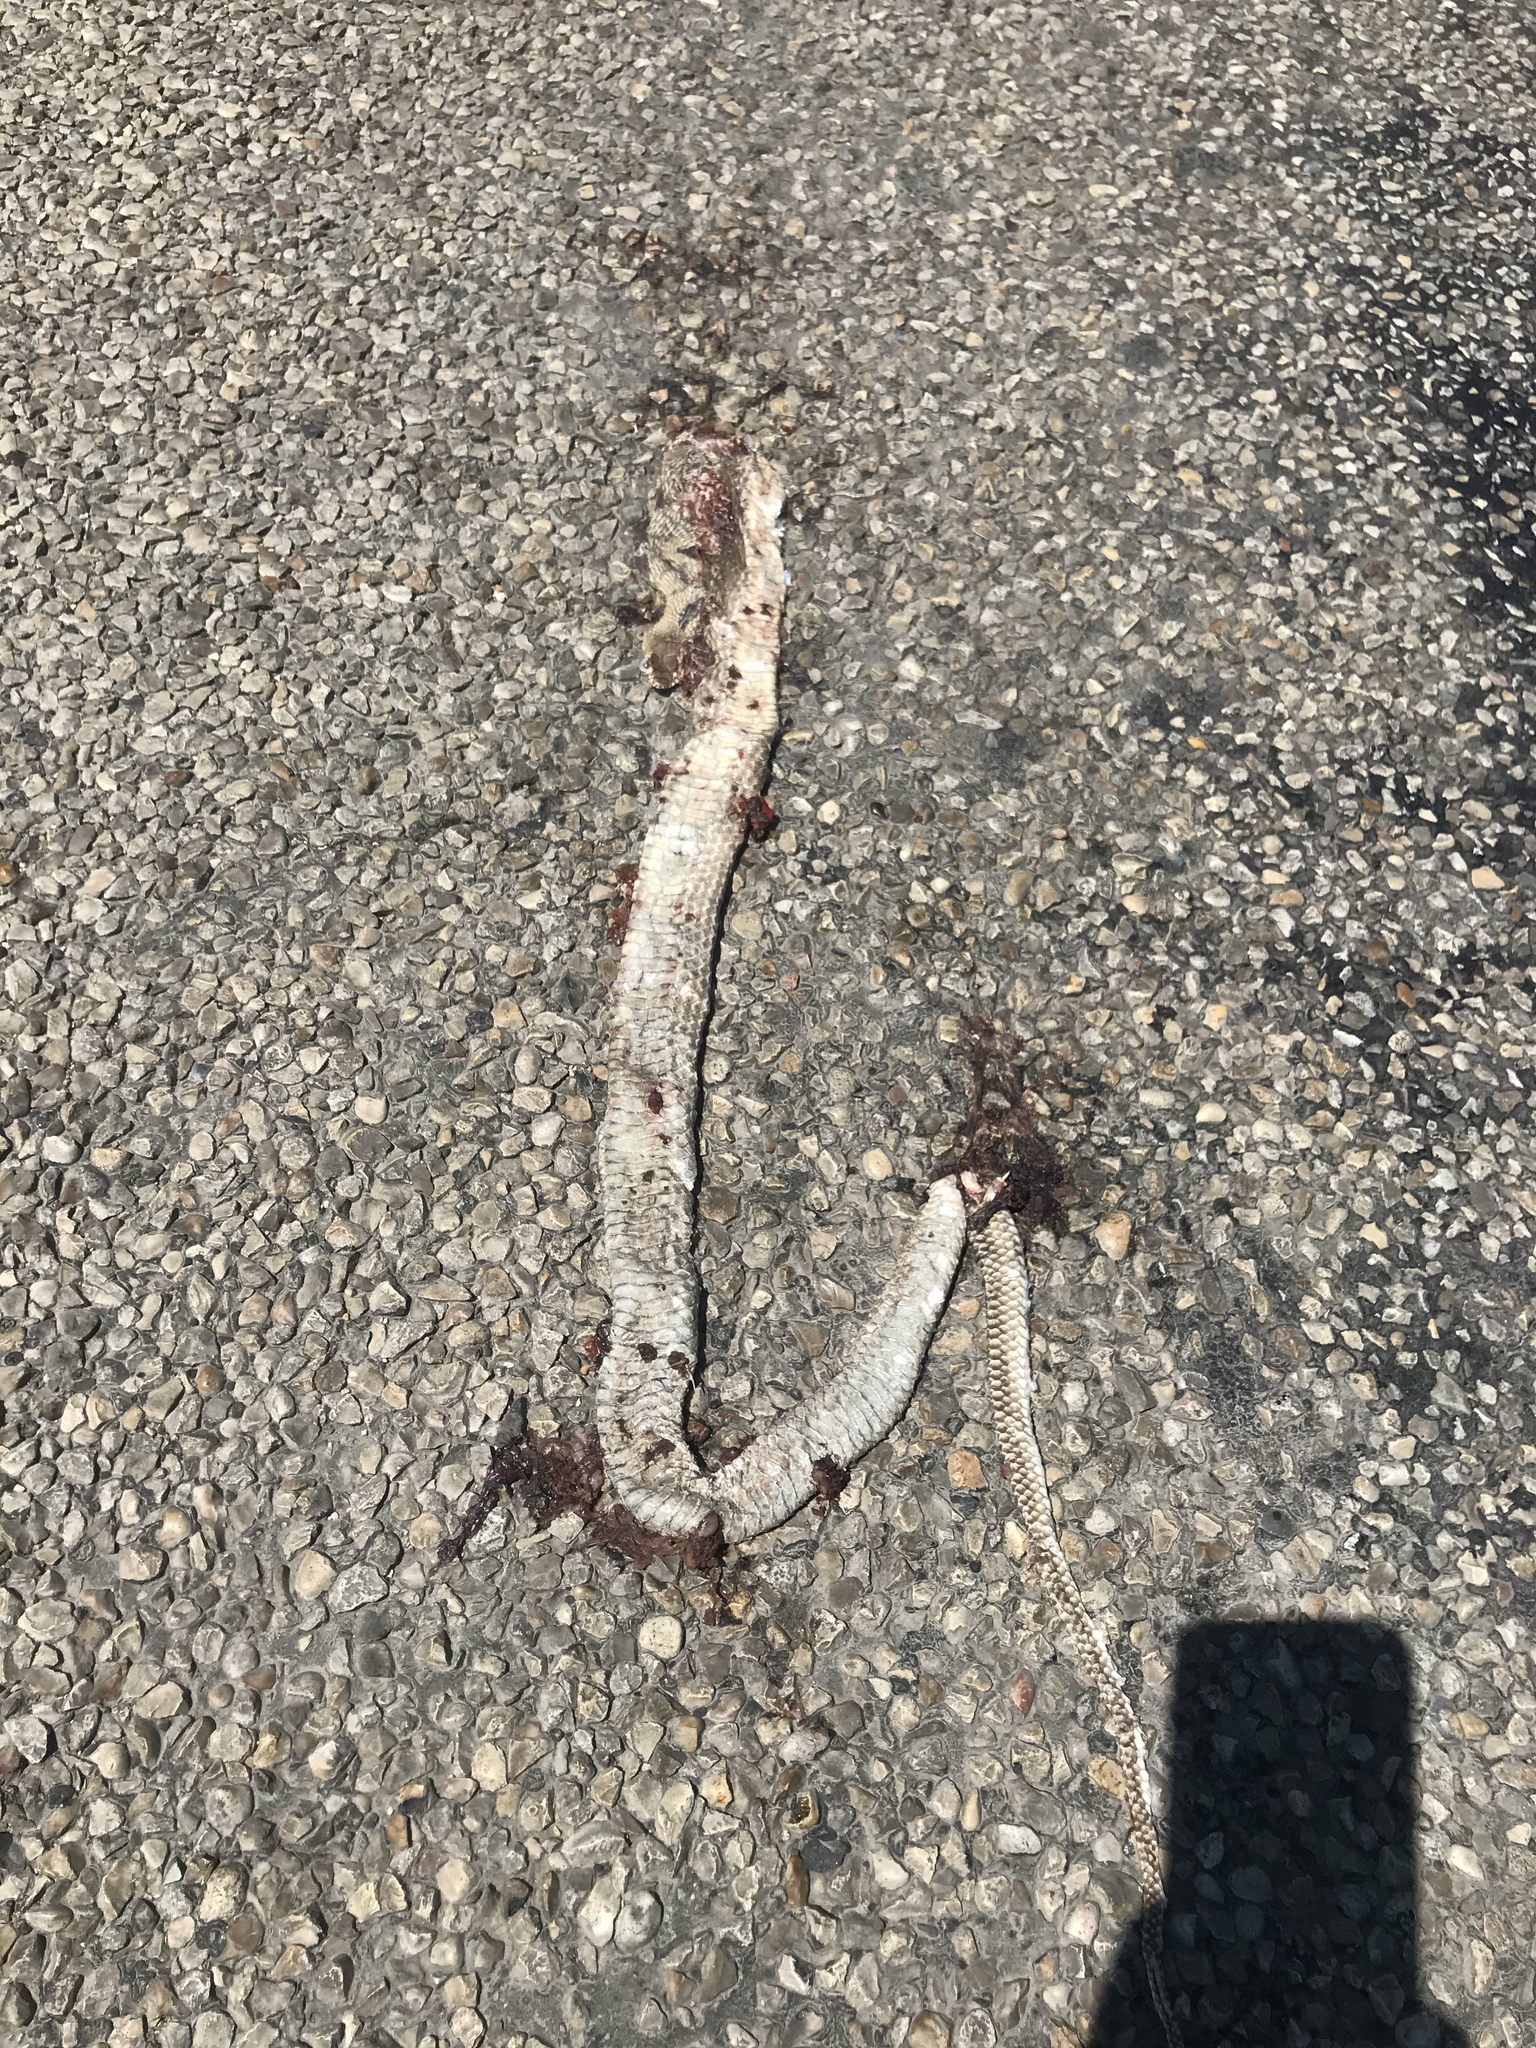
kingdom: Animalia
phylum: Chordata
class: Squamata
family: Colubridae
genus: Masticophis
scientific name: Masticophis flagellum
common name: Coachwhip
